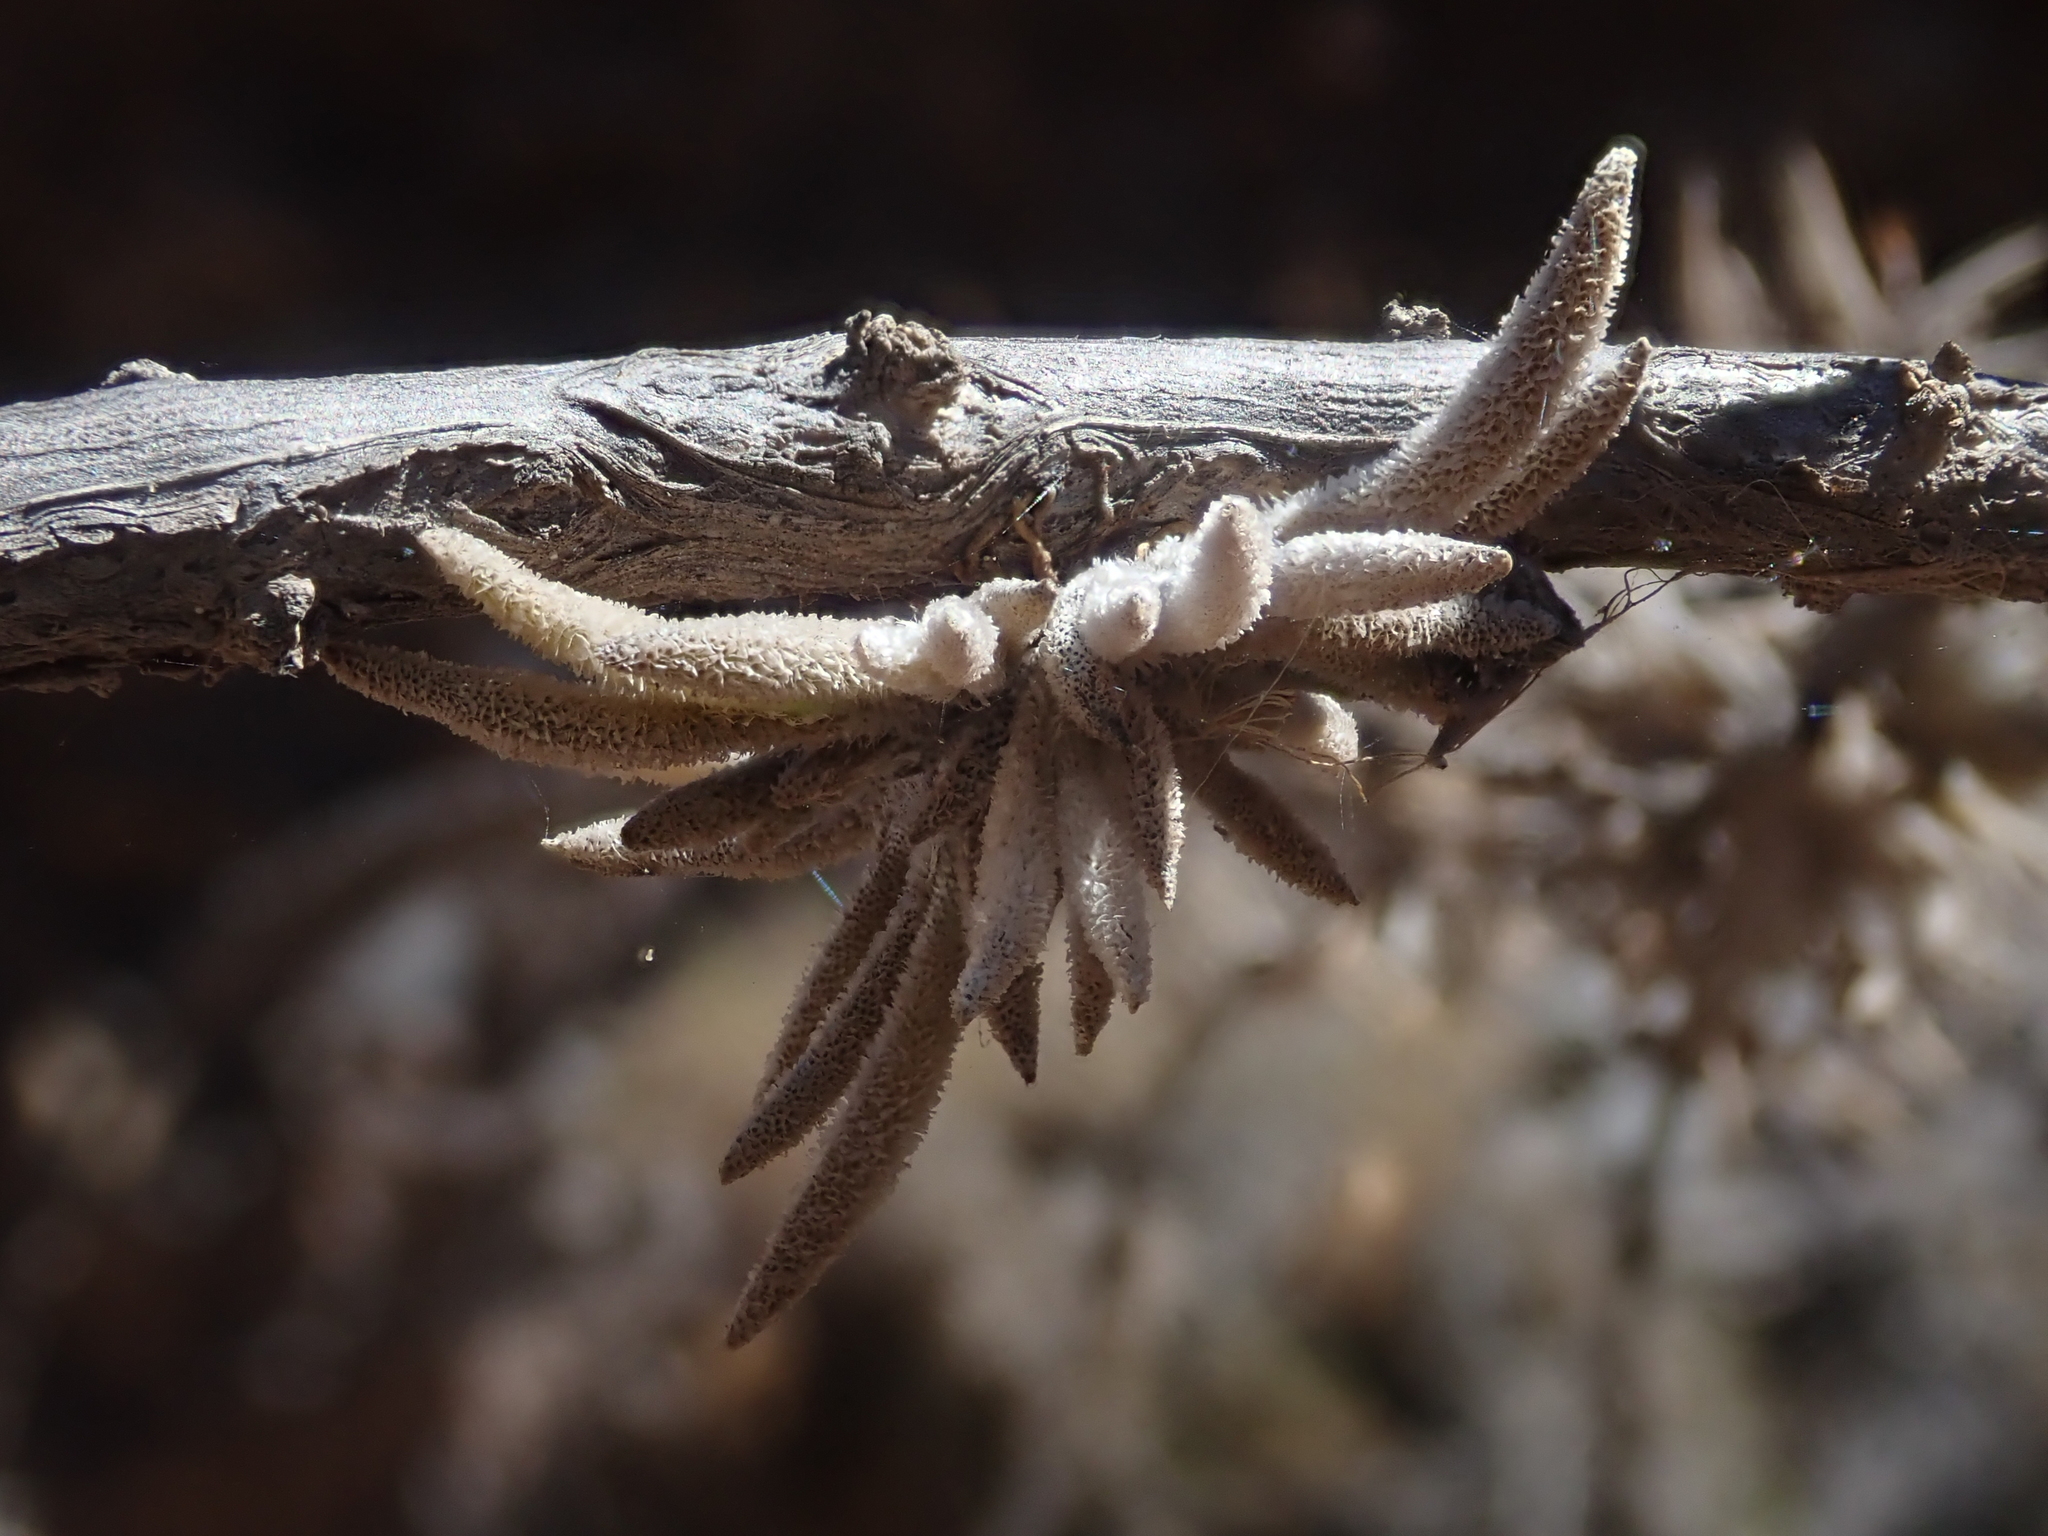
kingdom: Plantae
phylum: Tracheophyta
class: Liliopsida
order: Poales
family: Bromeliaceae
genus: Tillandsia
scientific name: Tillandsia capillaris
